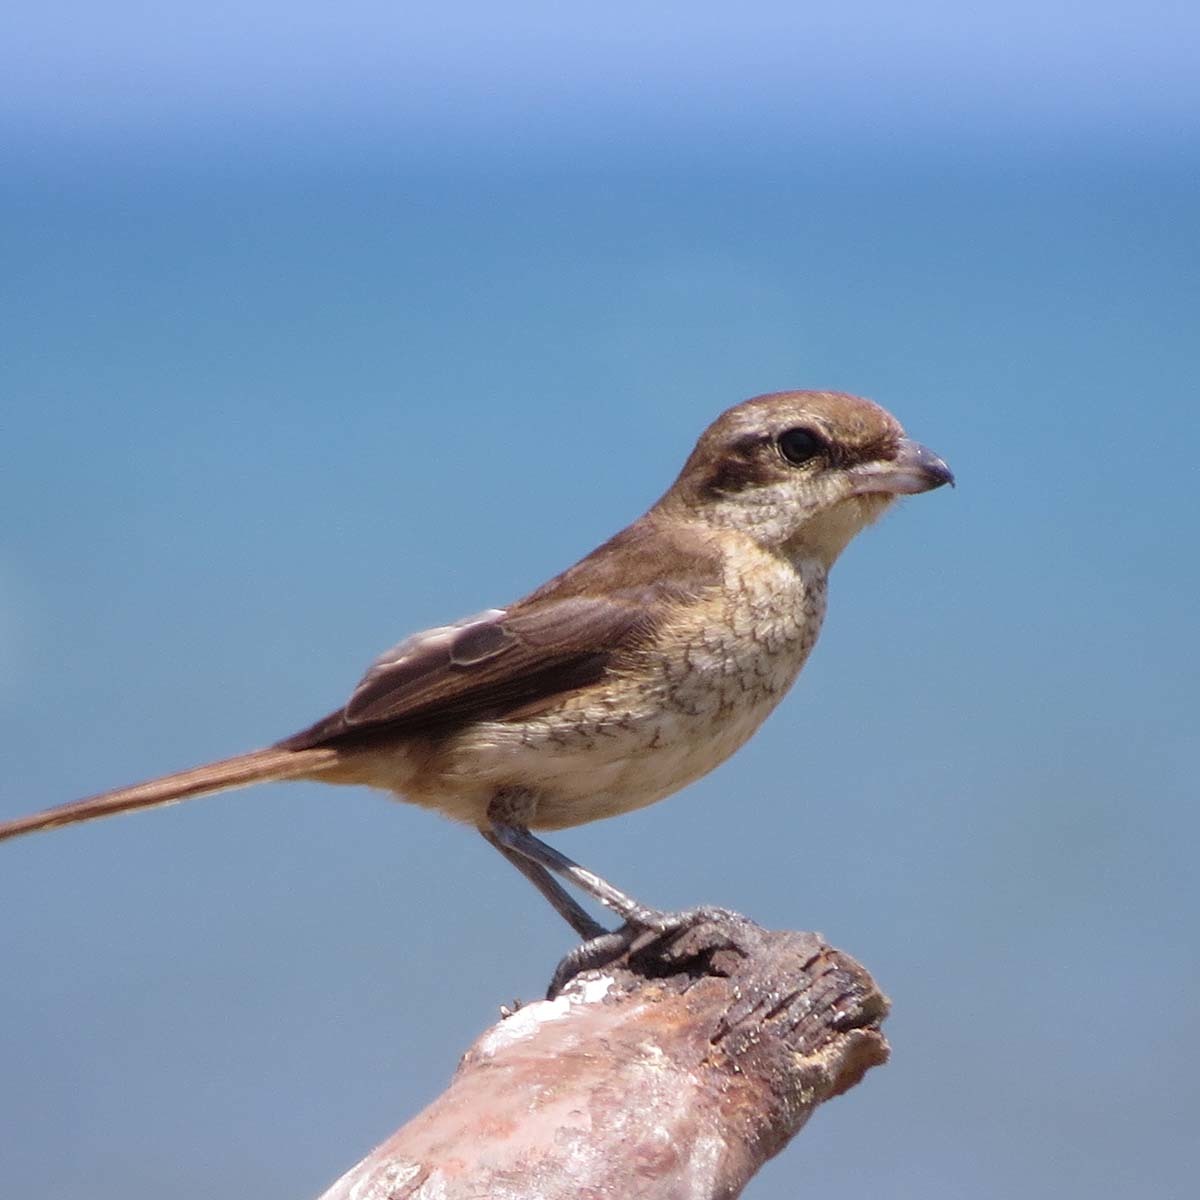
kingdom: Animalia
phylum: Chordata
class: Aves
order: Passeriformes
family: Laniidae
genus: Lanius
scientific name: Lanius cristatus
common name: Brown shrike
